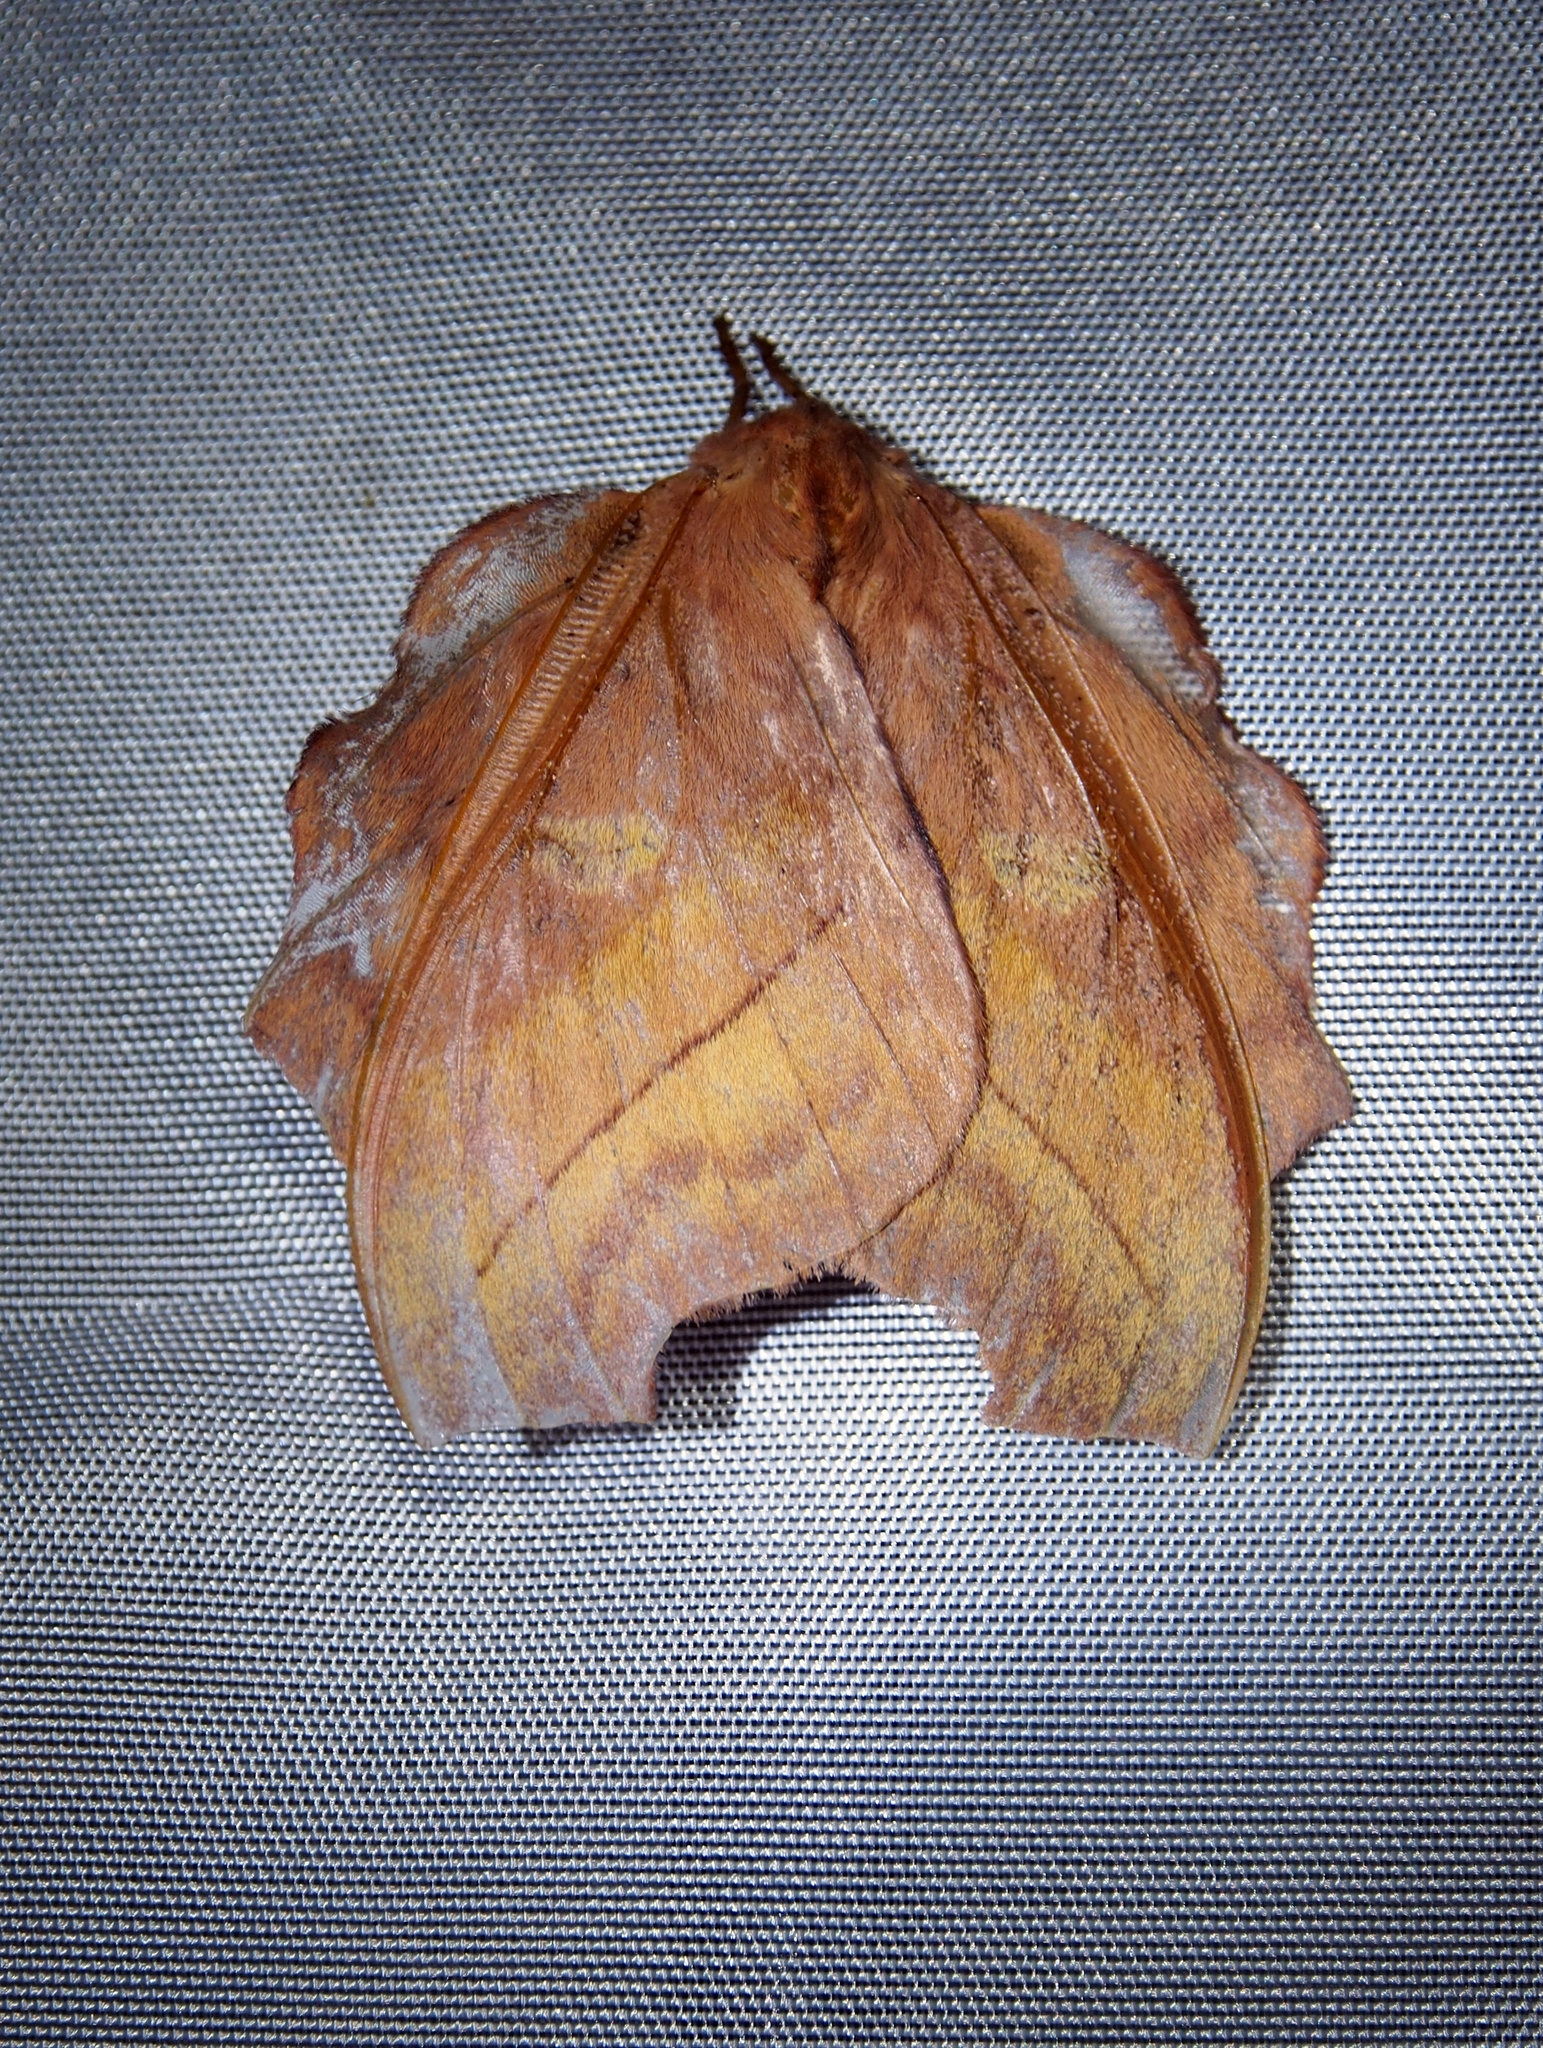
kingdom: Animalia
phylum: Arthropoda
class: Insecta
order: Lepidoptera
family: Saturniidae
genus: Hyperchiria
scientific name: Hyperchiria nausica
